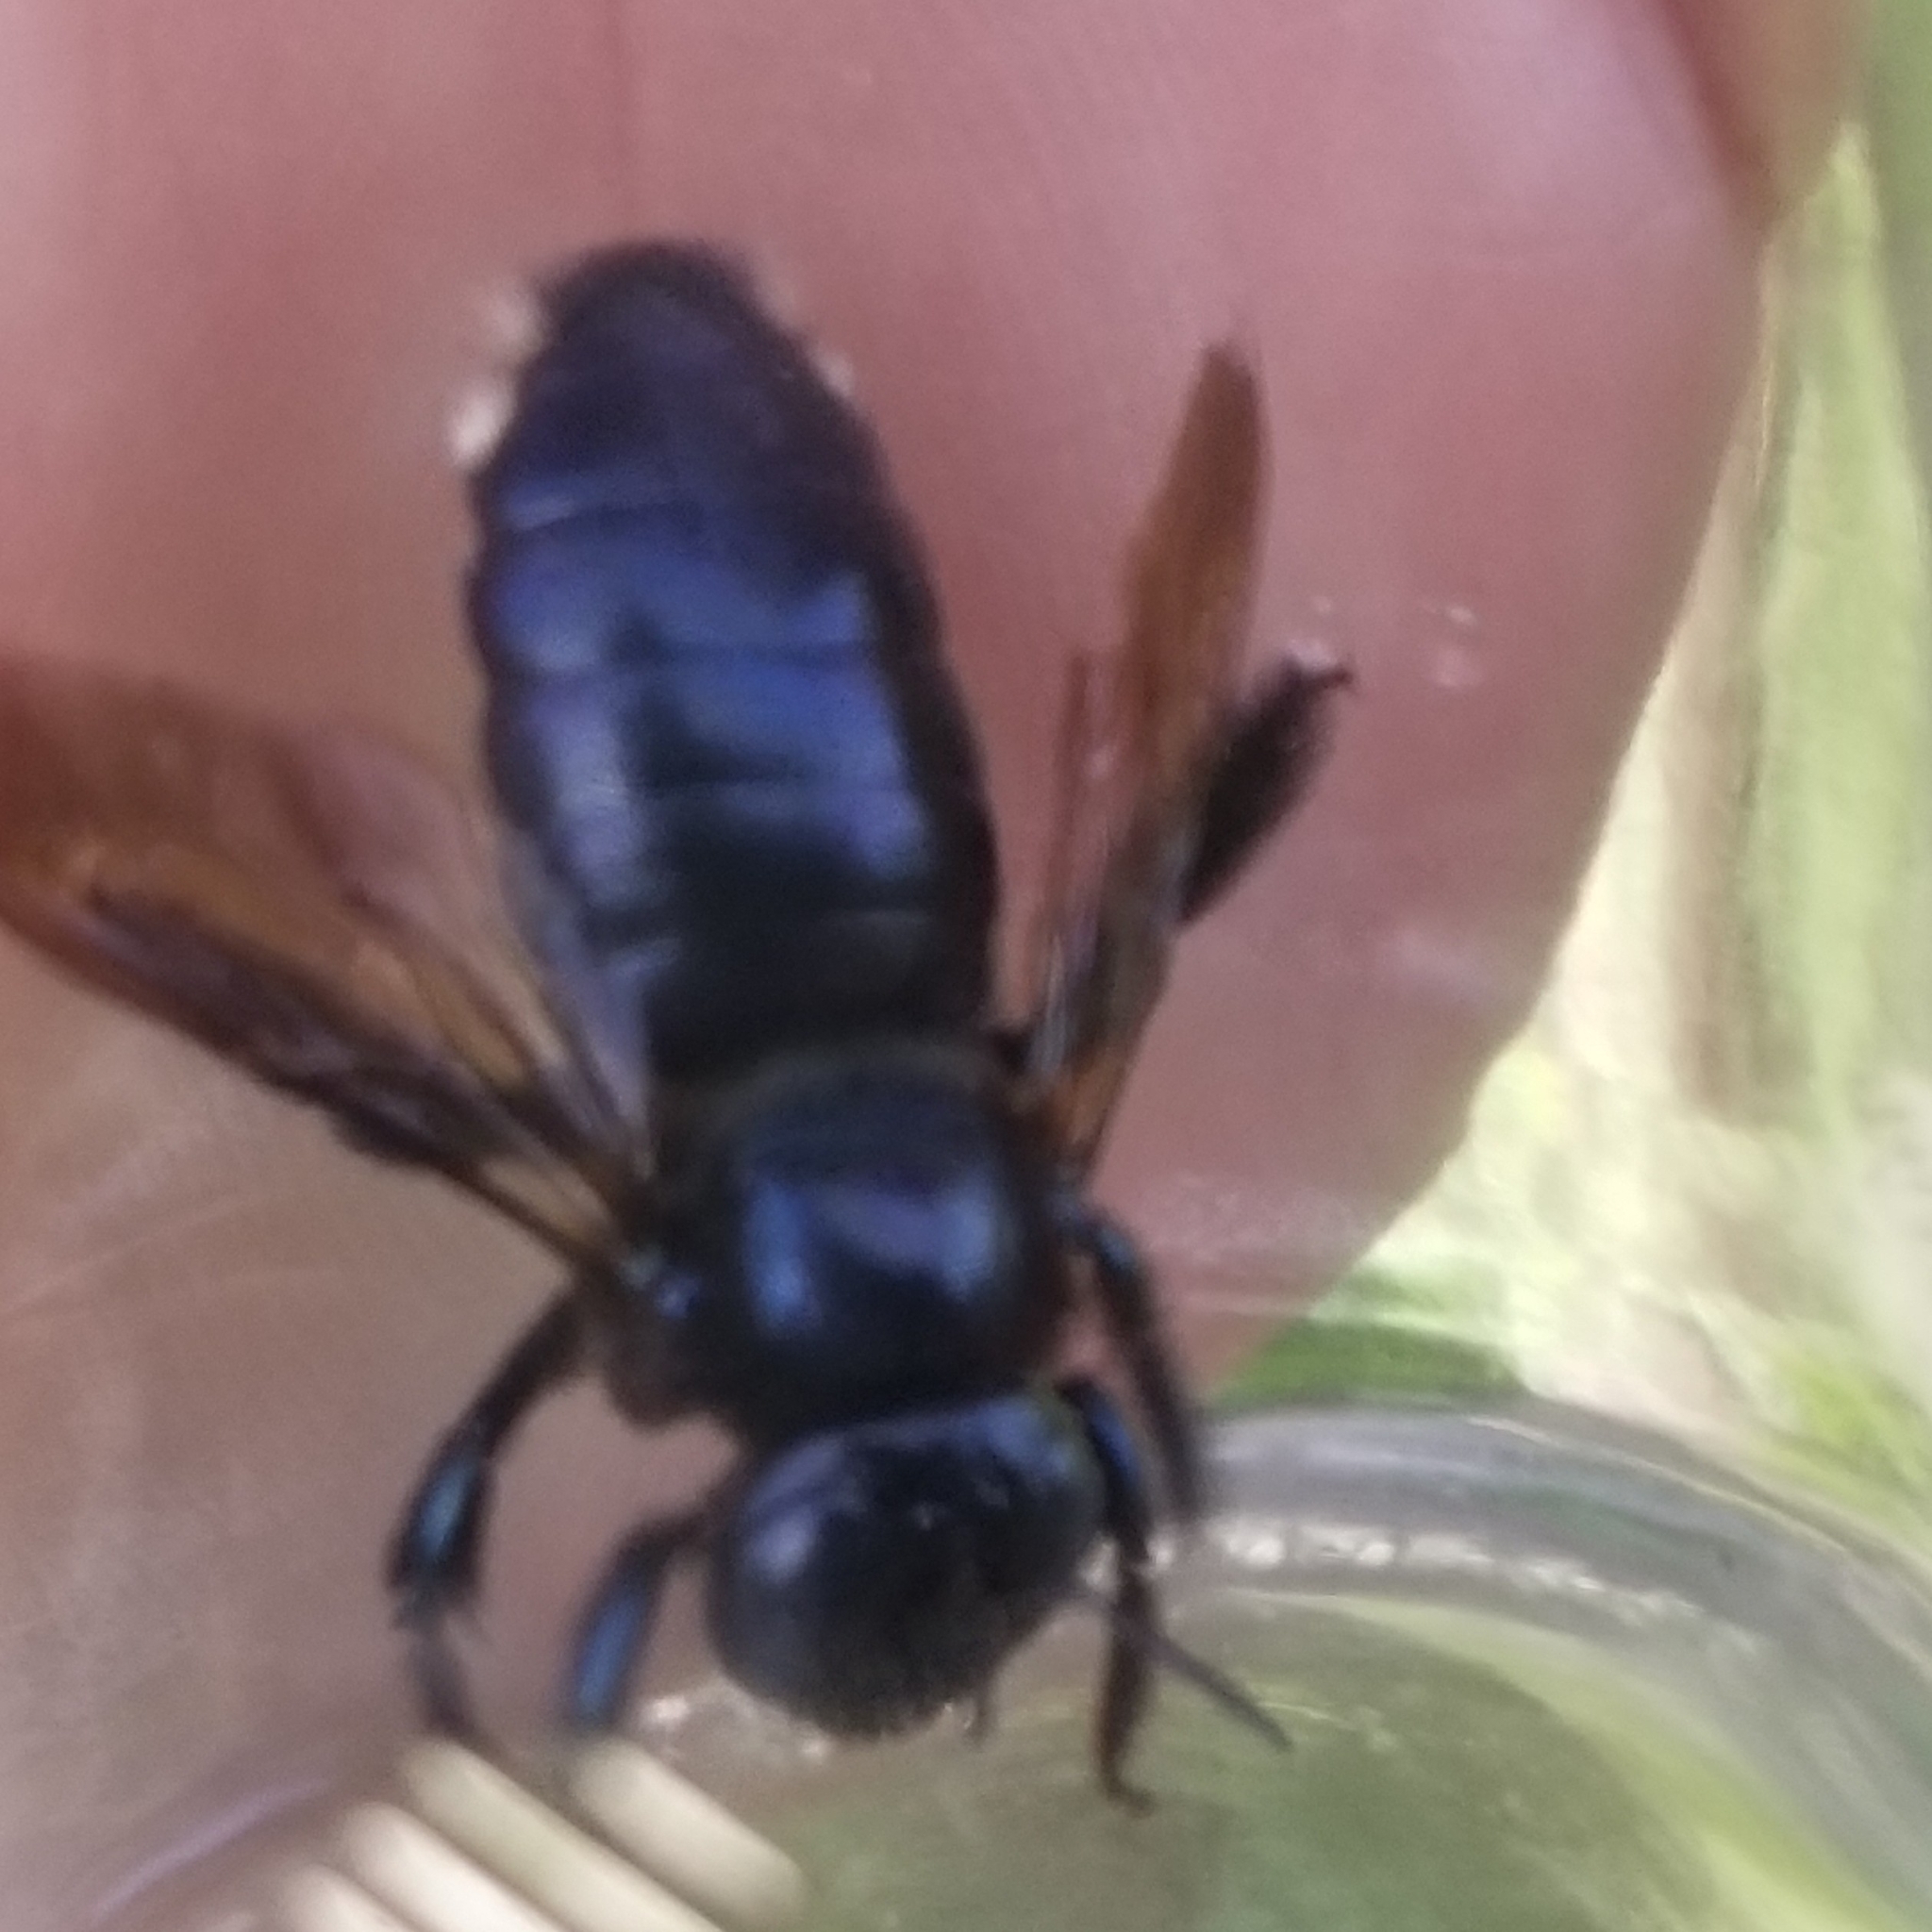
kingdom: Animalia
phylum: Arthropoda
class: Insecta
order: Hymenoptera
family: Apidae
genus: Xylocopa
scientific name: Xylocopa micans
